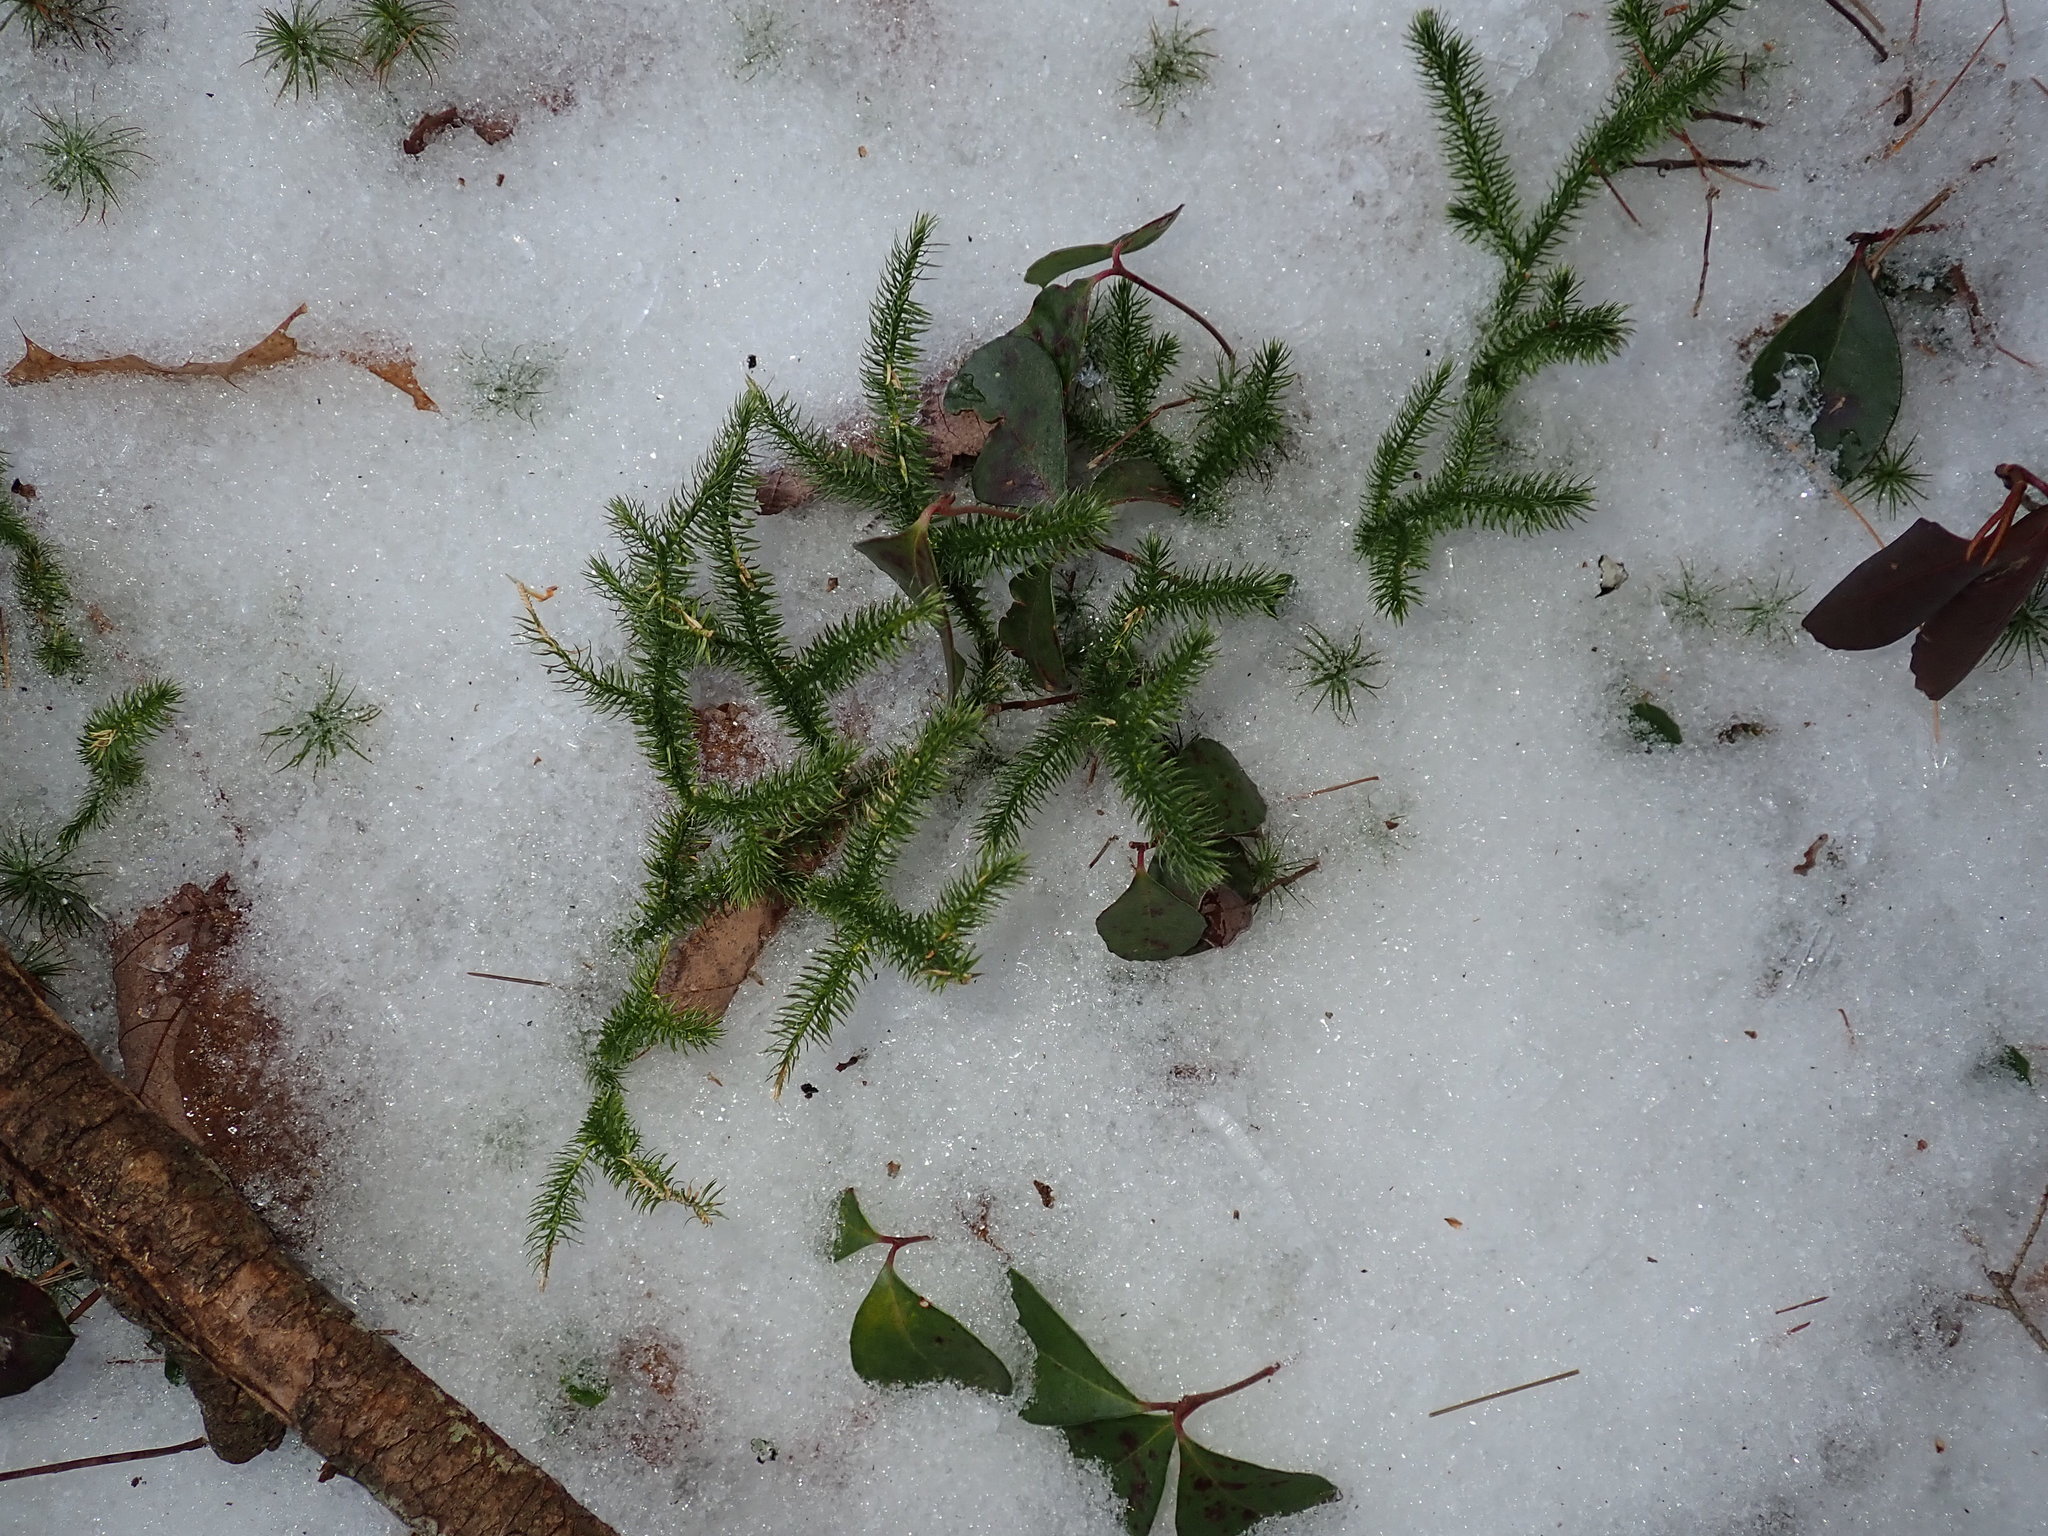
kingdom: Plantae
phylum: Tracheophyta
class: Lycopodiopsida
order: Lycopodiales
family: Lycopodiaceae
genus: Lycopodium
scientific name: Lycopodium clavatum
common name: Stag's-horn clubmoss
